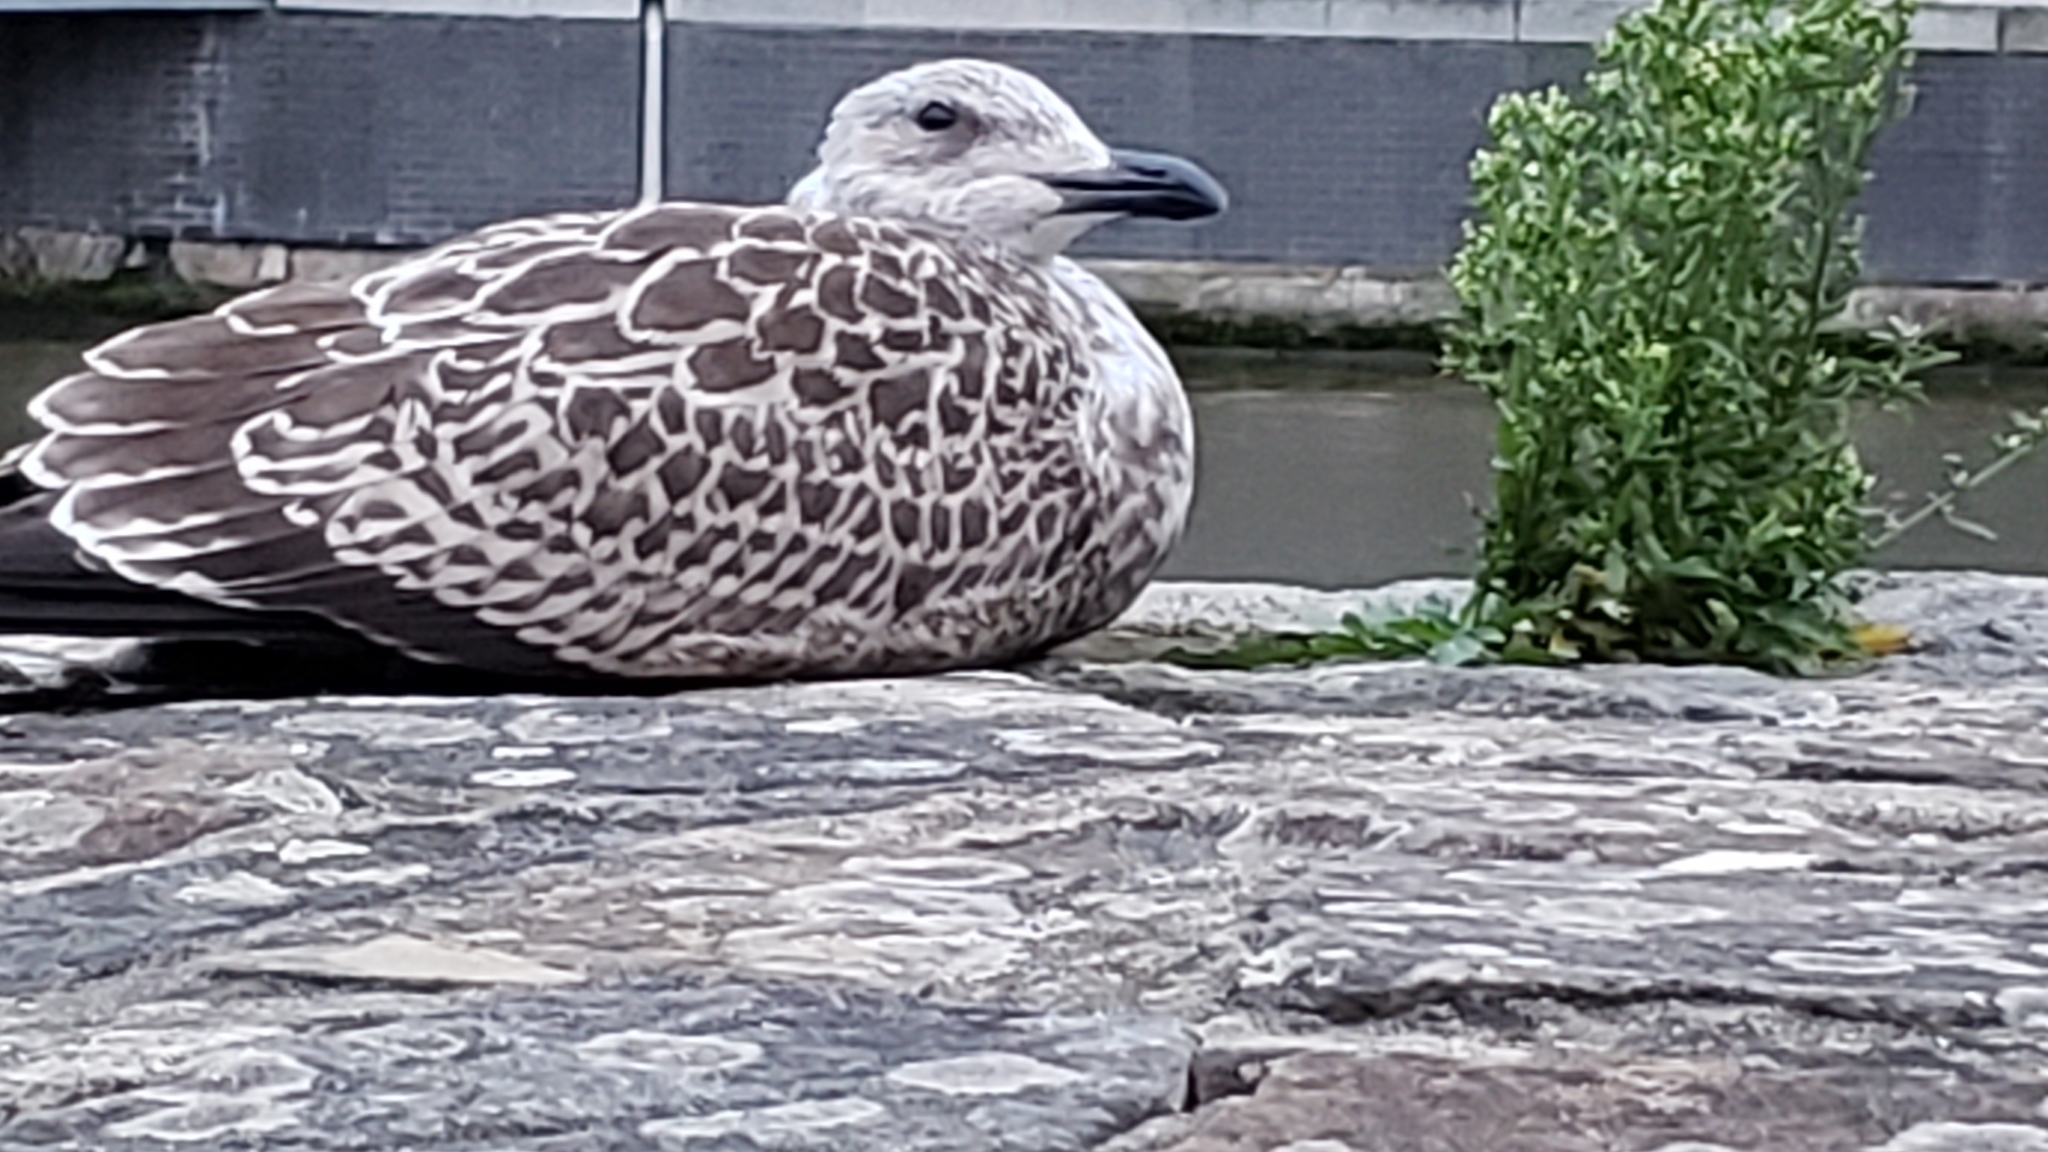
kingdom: Animalia
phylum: Chordata
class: Aves
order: Charadriiformes
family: Laridae
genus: Larus
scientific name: Larus fuscus
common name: Lesser black-backed gull
